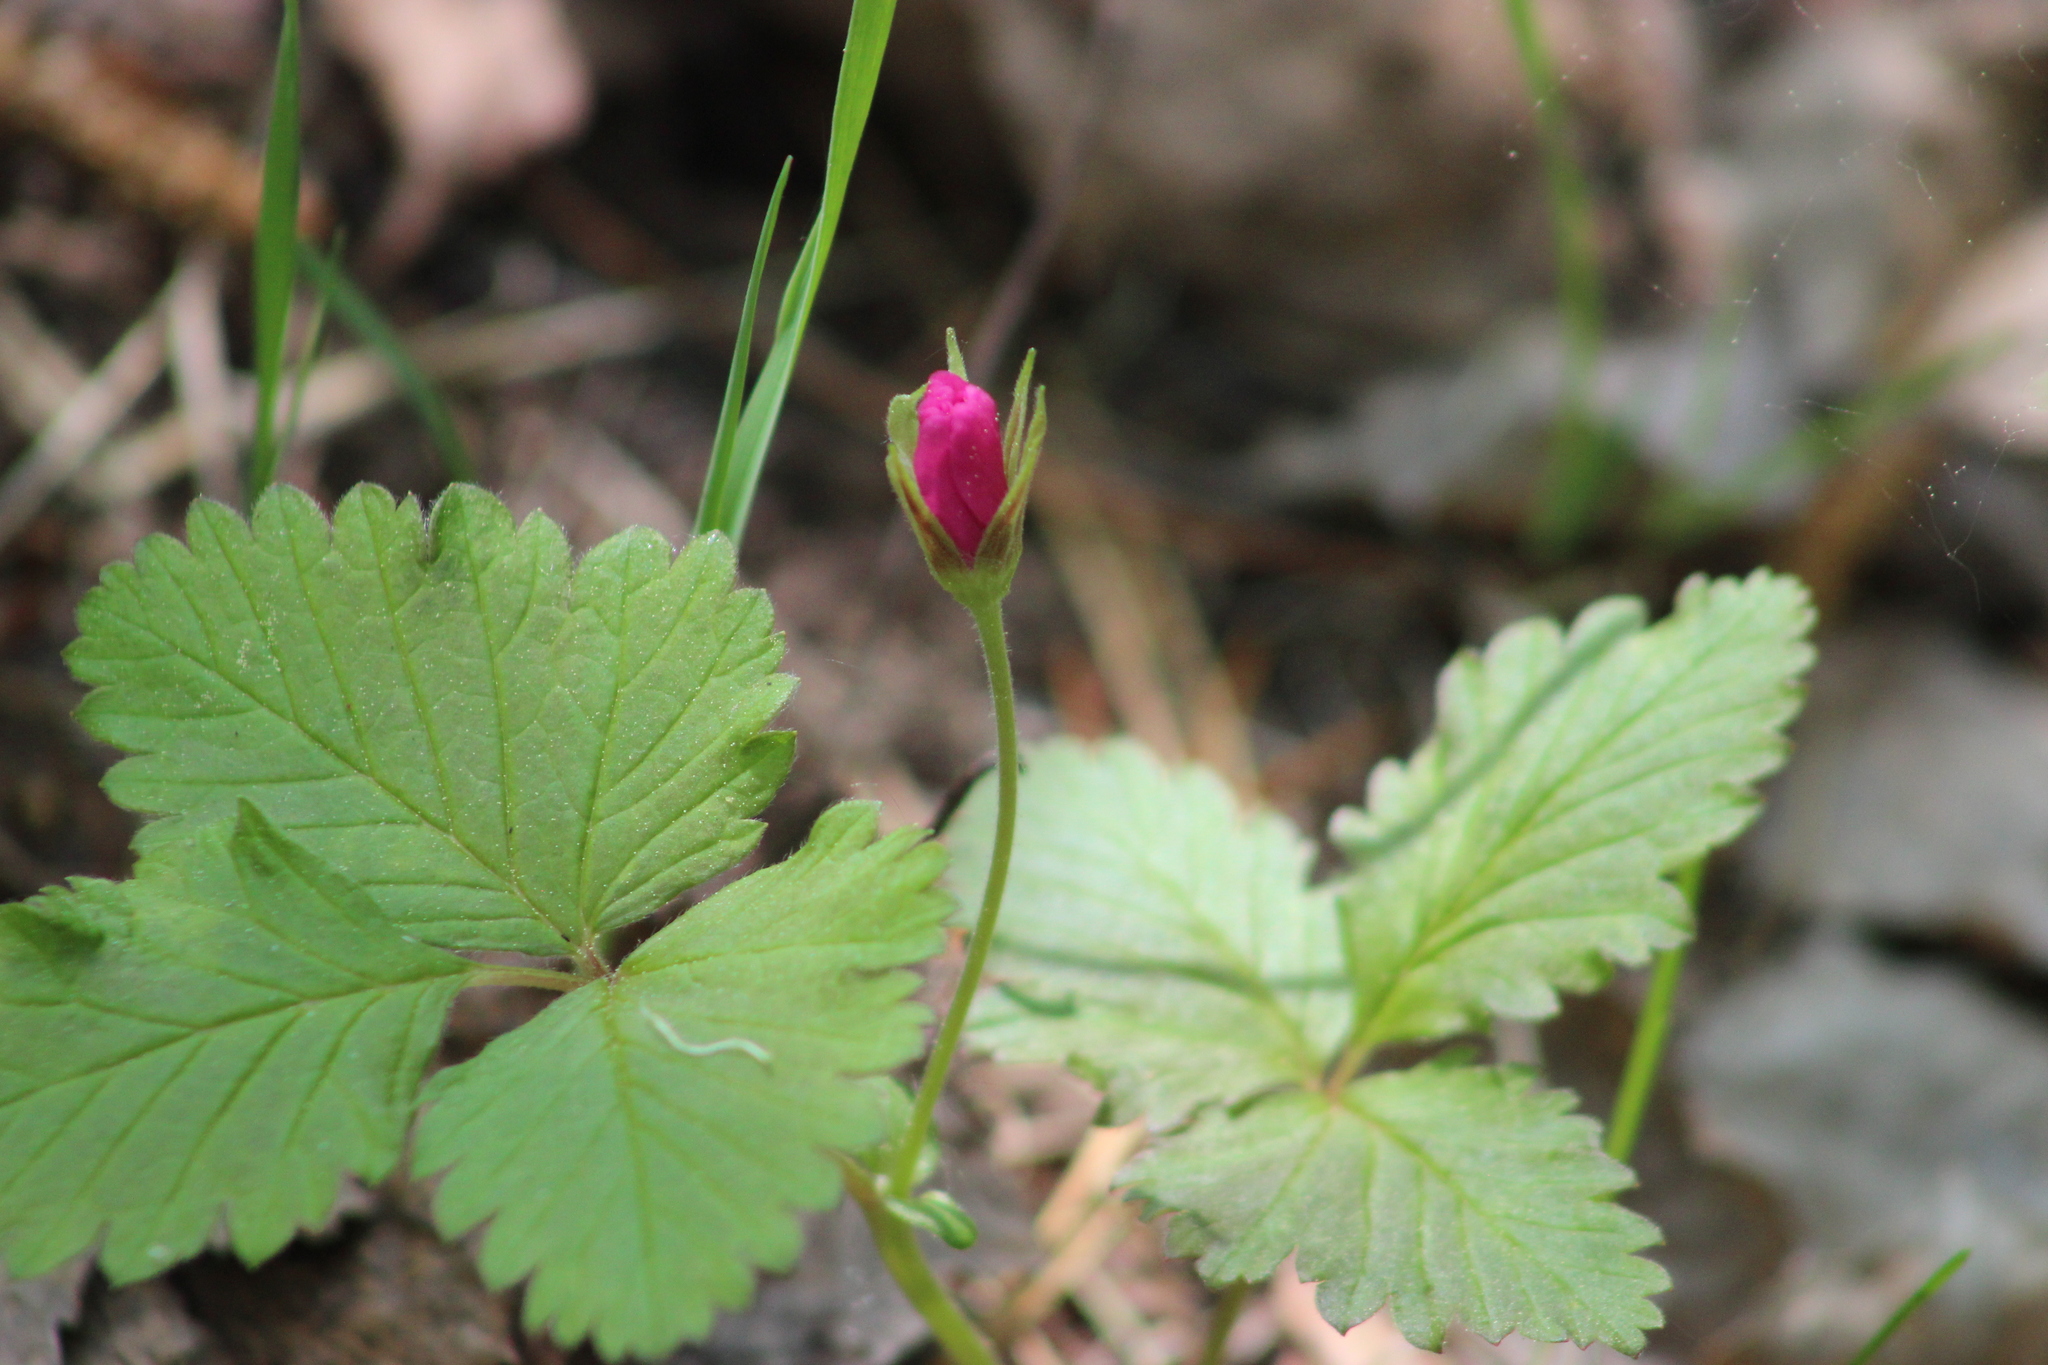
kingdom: Plantae
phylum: Tracheophyta
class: Magnoliopsida
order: Rosales
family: Rosaceae
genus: Rubus
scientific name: Rubus arcticus
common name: Arctic bramble
